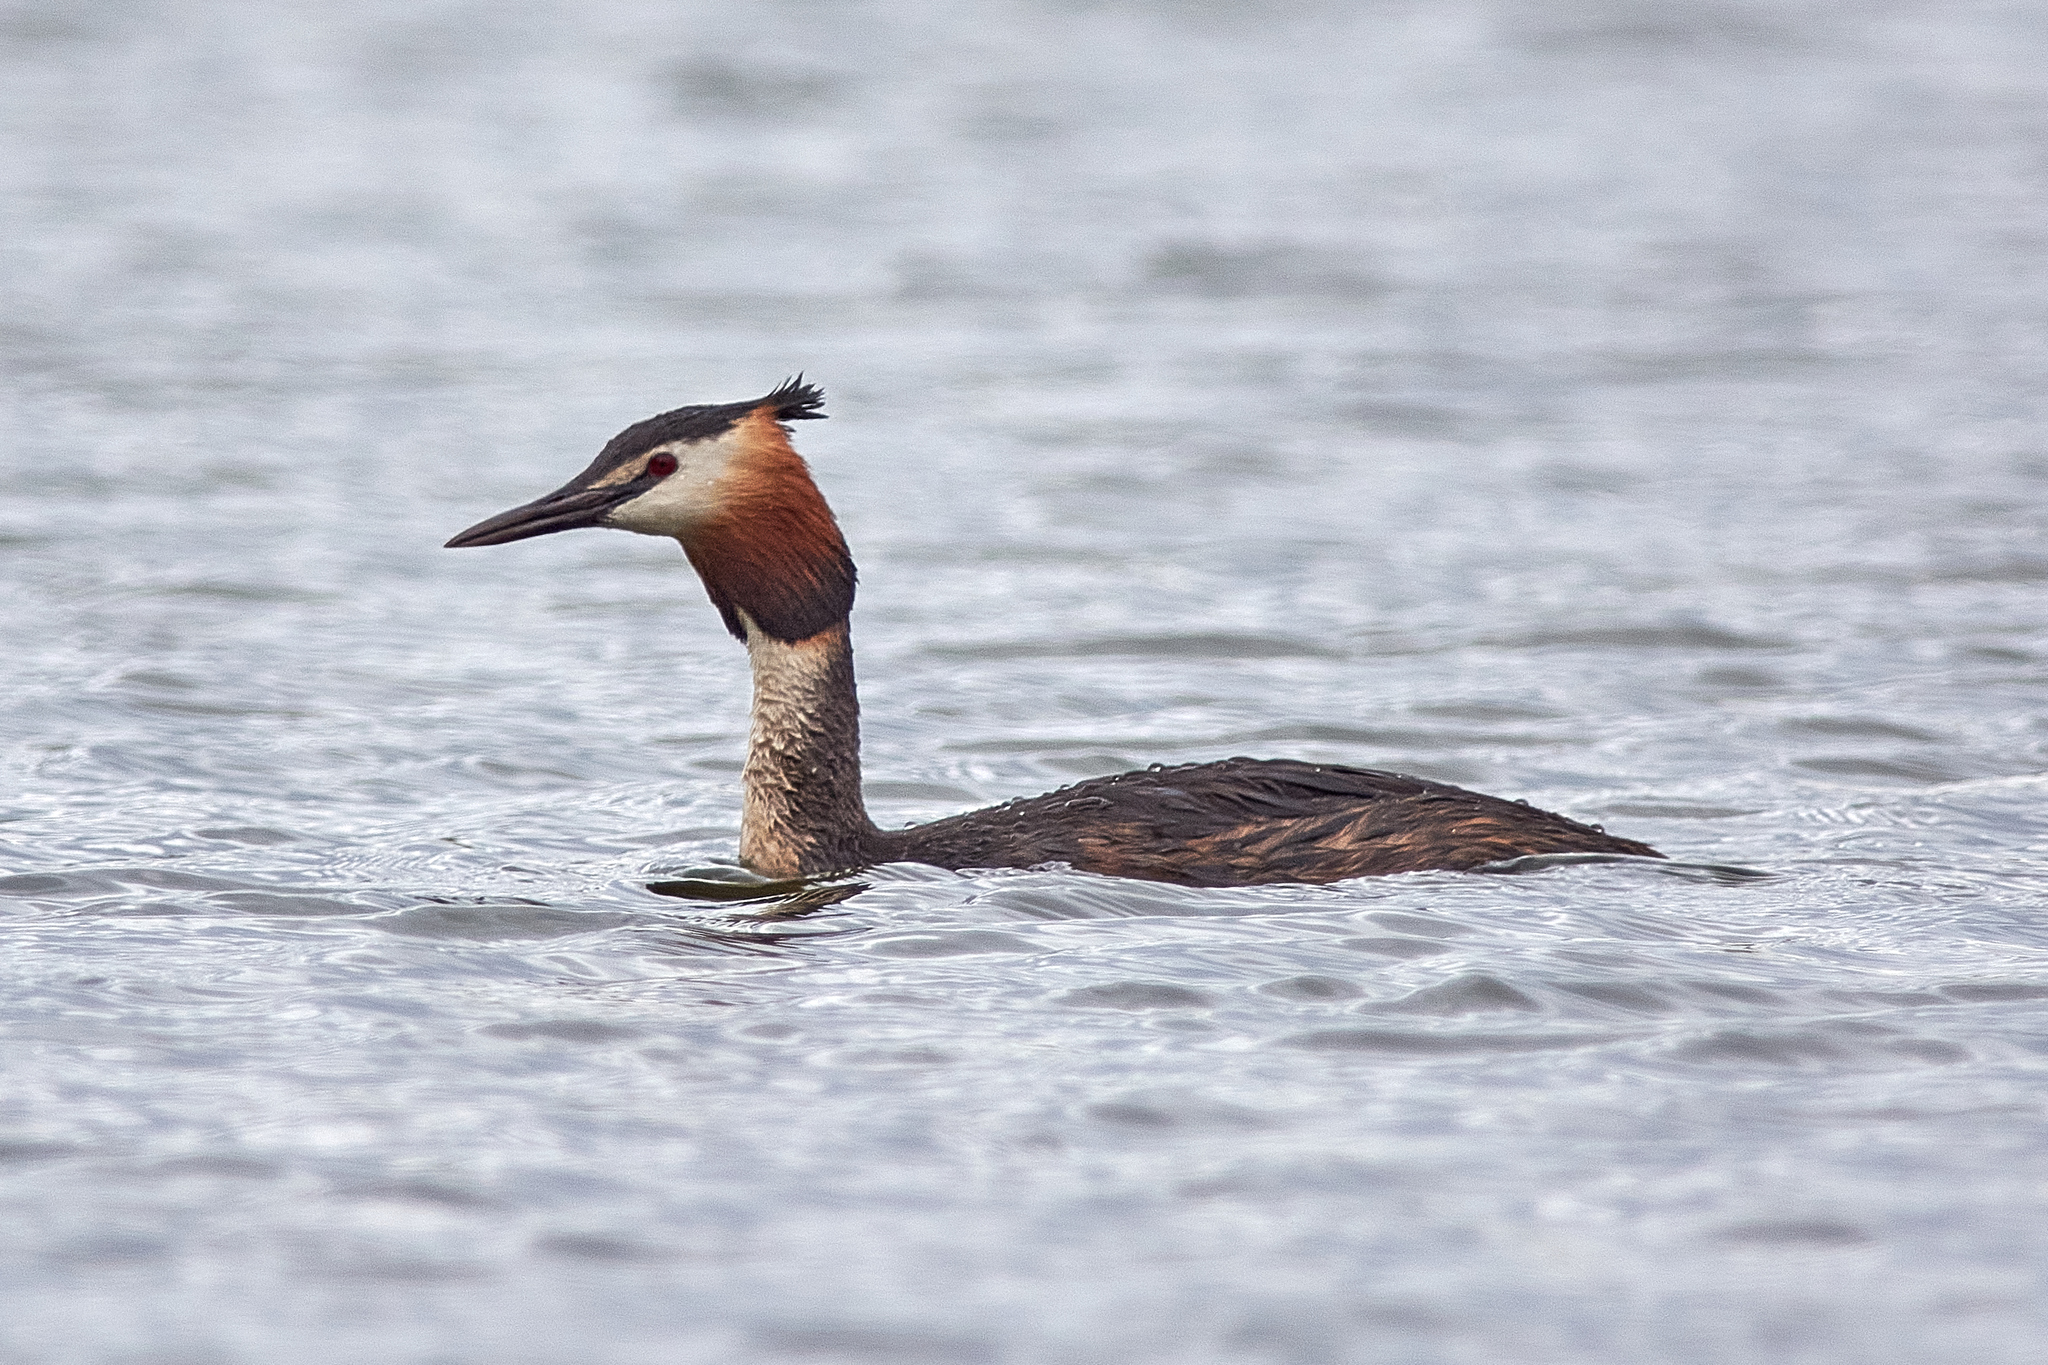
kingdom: Animalia
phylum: Chordata
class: Aves
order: Podicipediformes
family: Podicipedidae
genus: Podiceps
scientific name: Podiceps cristatus
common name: Great crested grebe
